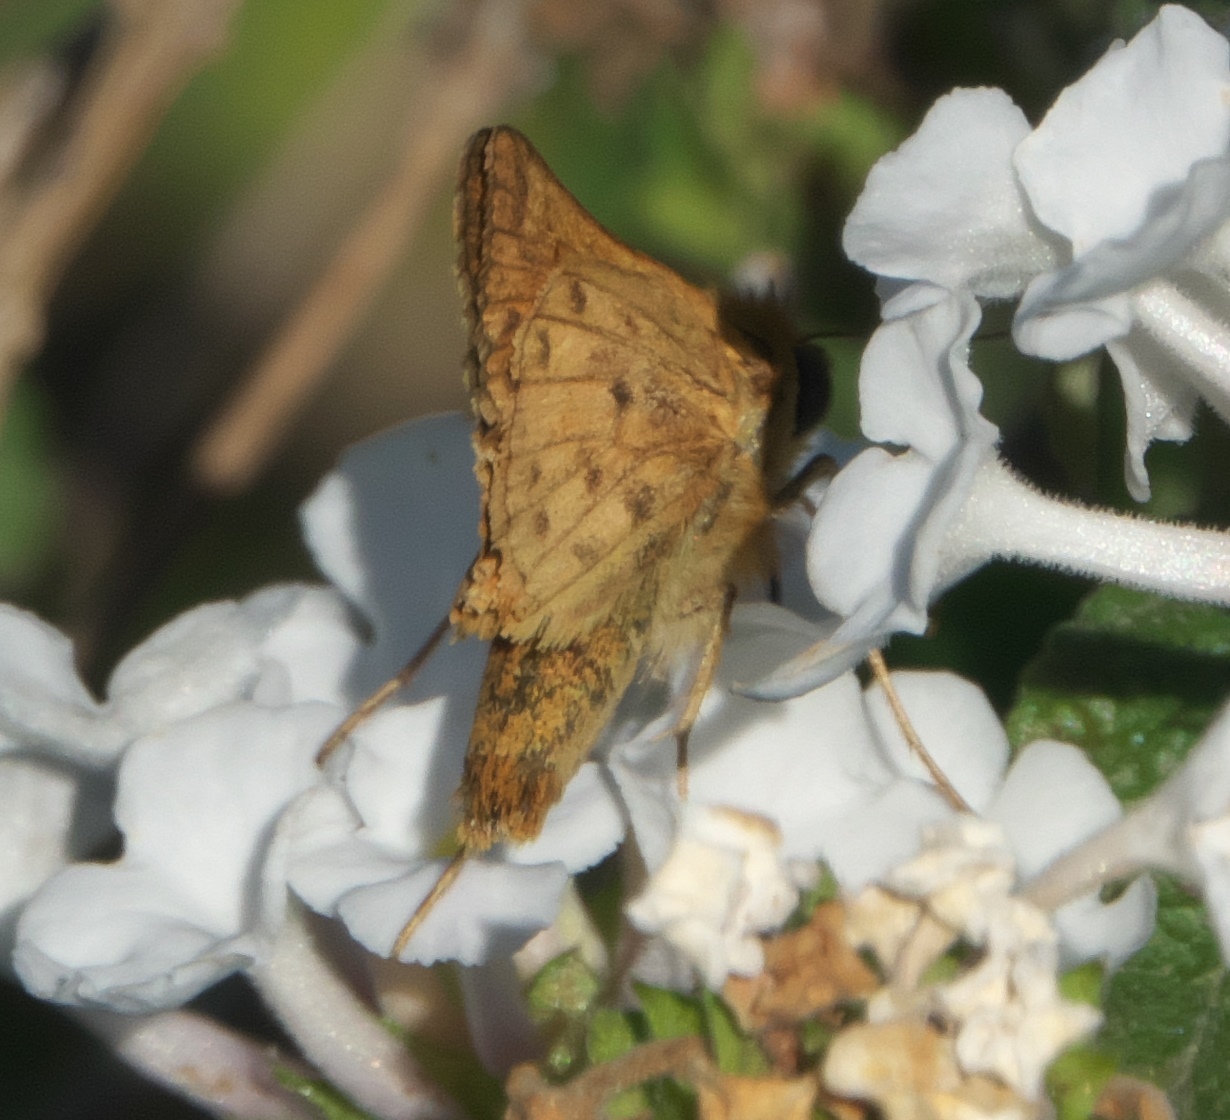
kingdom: Animalia
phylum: Arthropoda
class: Insecta
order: Lepidoptera
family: Hesperiidae
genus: Hylephila
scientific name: Hylephila phyleus
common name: Fiery skipper
